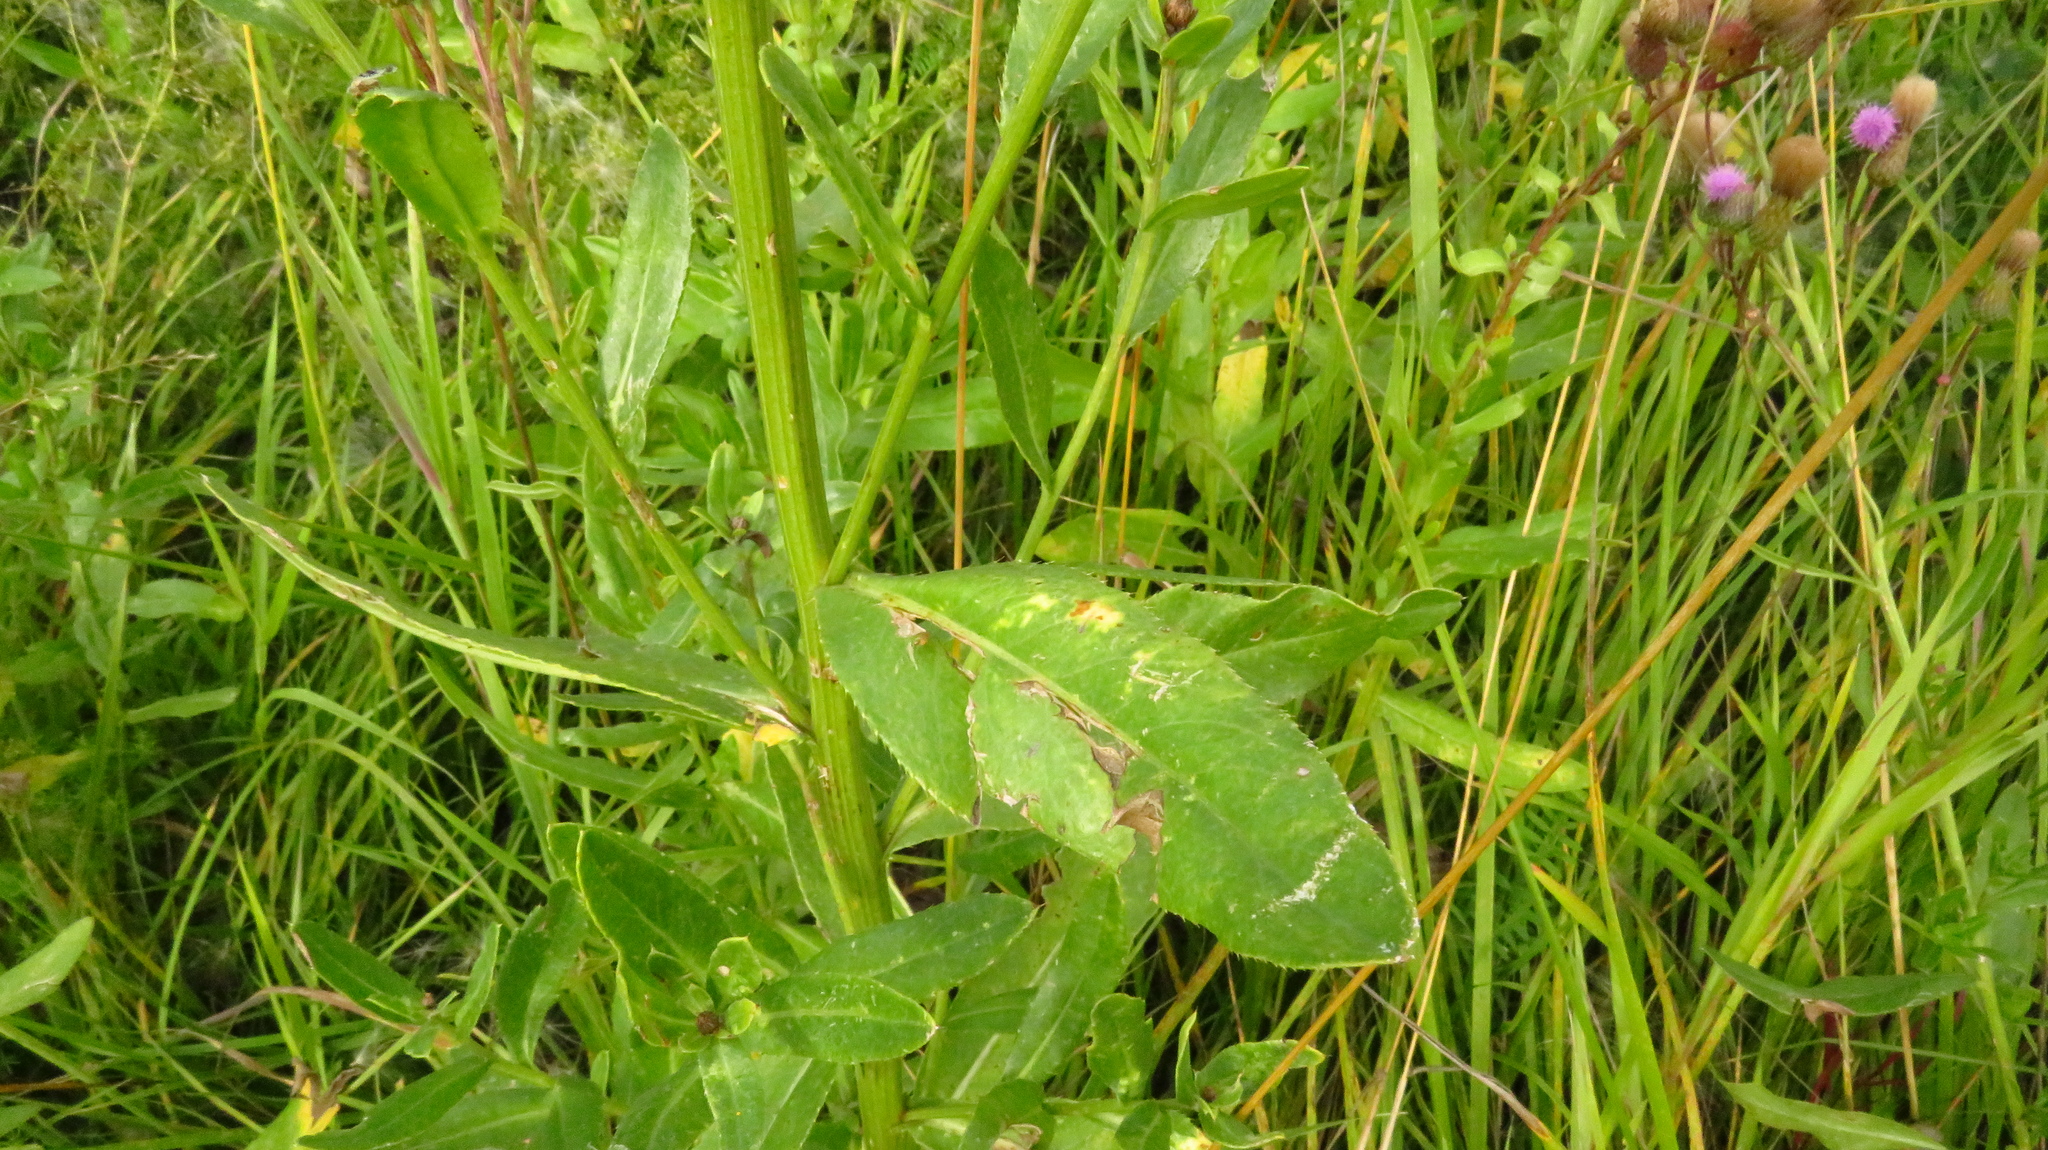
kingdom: Plantae
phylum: Tracheophyta
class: Magnoliopsida
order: Asterales
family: Asteraceae
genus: Cirsium
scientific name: Cirsium arvense
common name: Creeping thistle
